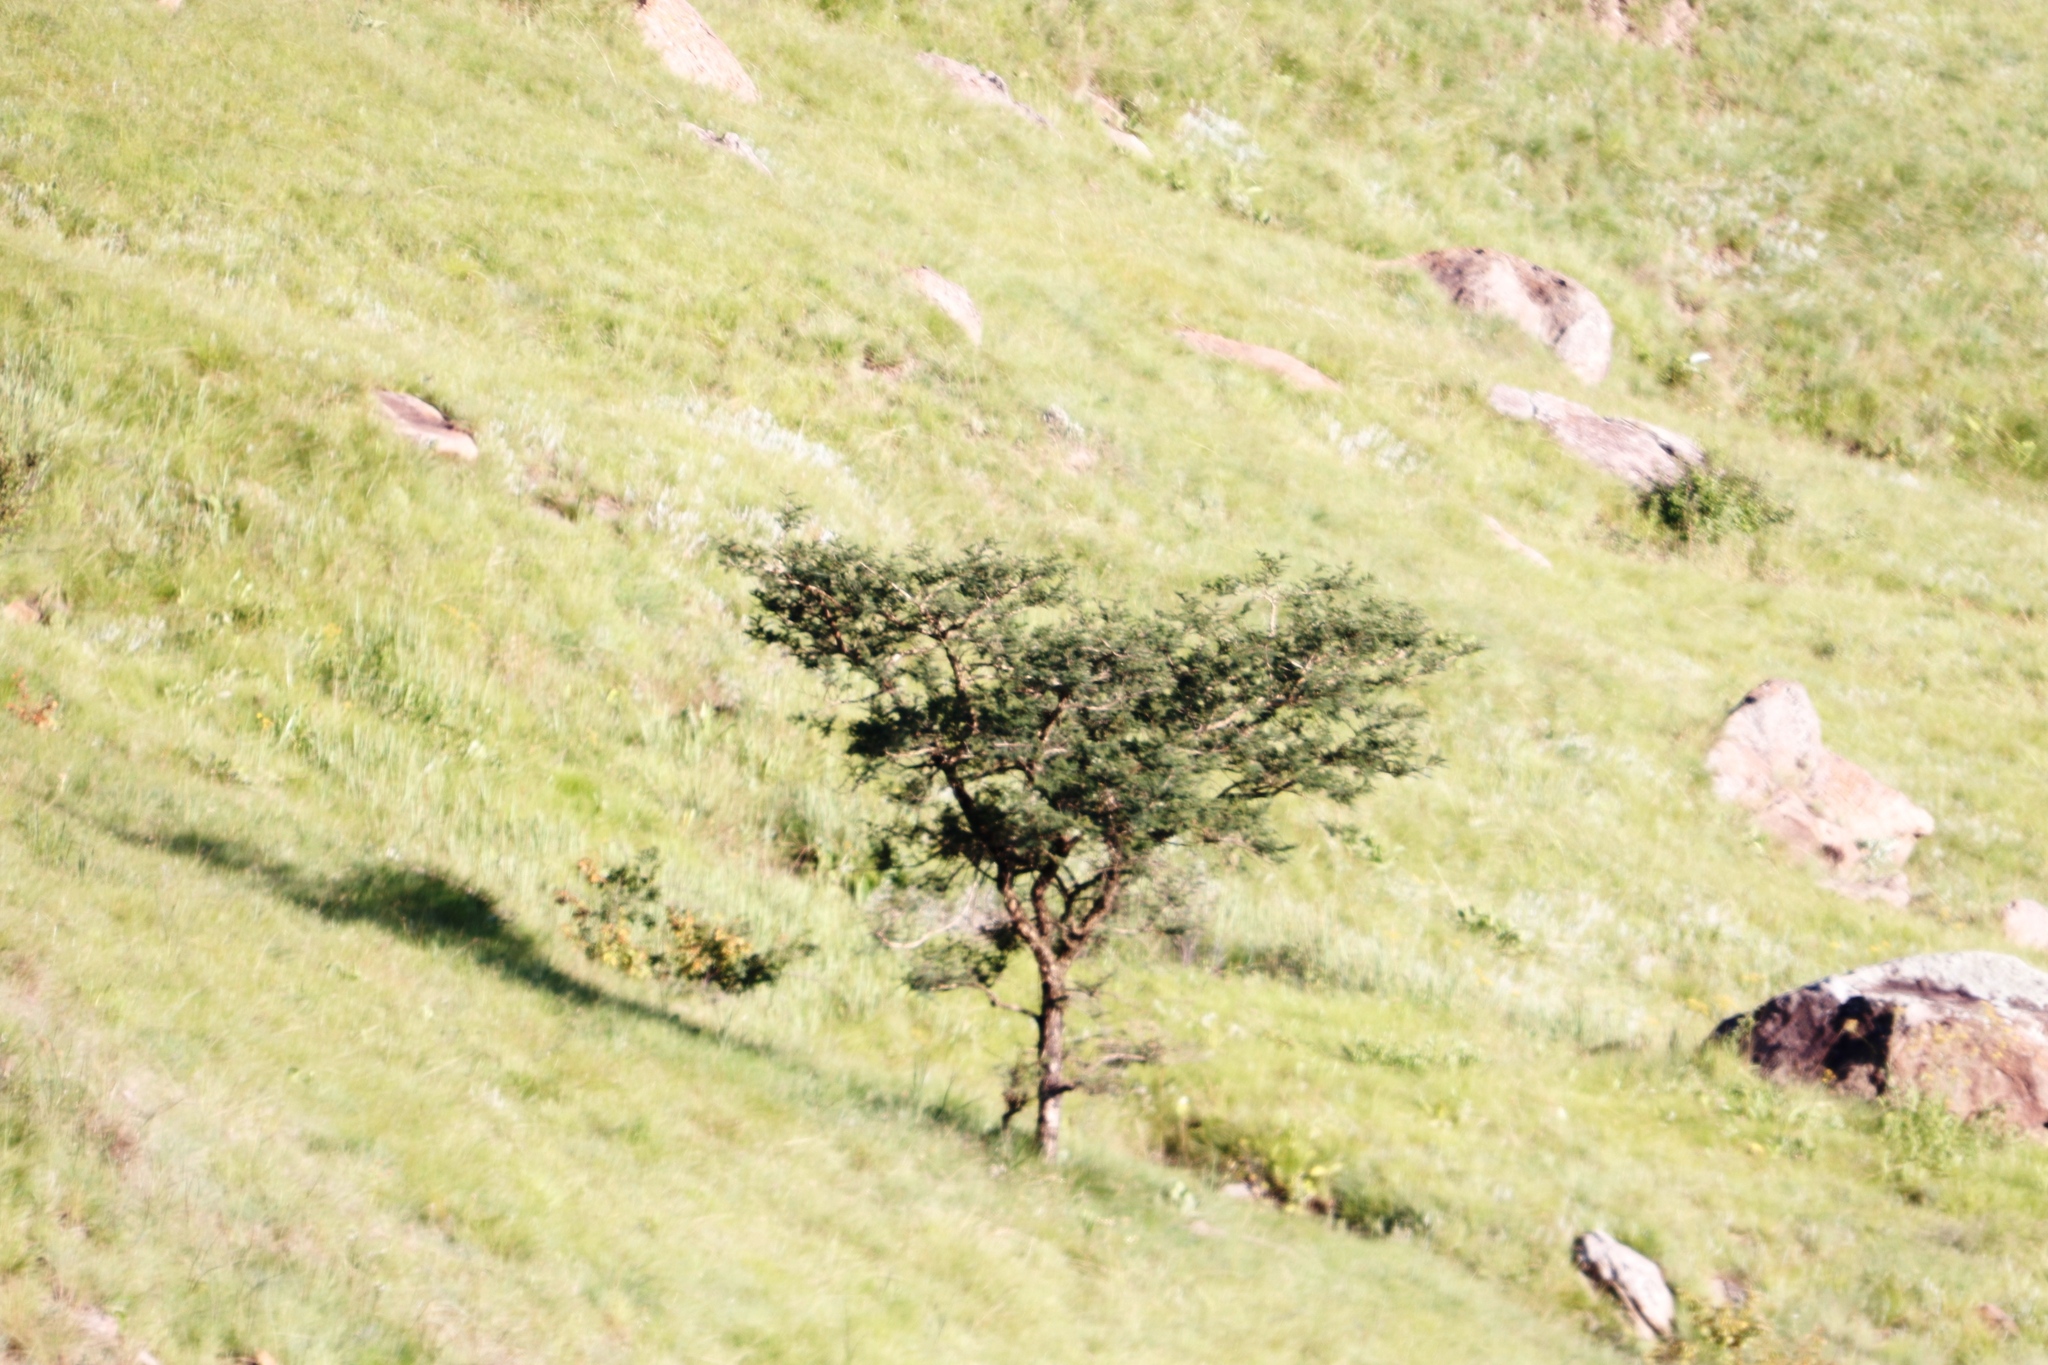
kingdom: Plantae
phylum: Tracheophyta
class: Magnoliopsida
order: Fabales
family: Fabaceae
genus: Vachellia
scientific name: Vachellia sieberiana
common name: Flat-topped thorn
